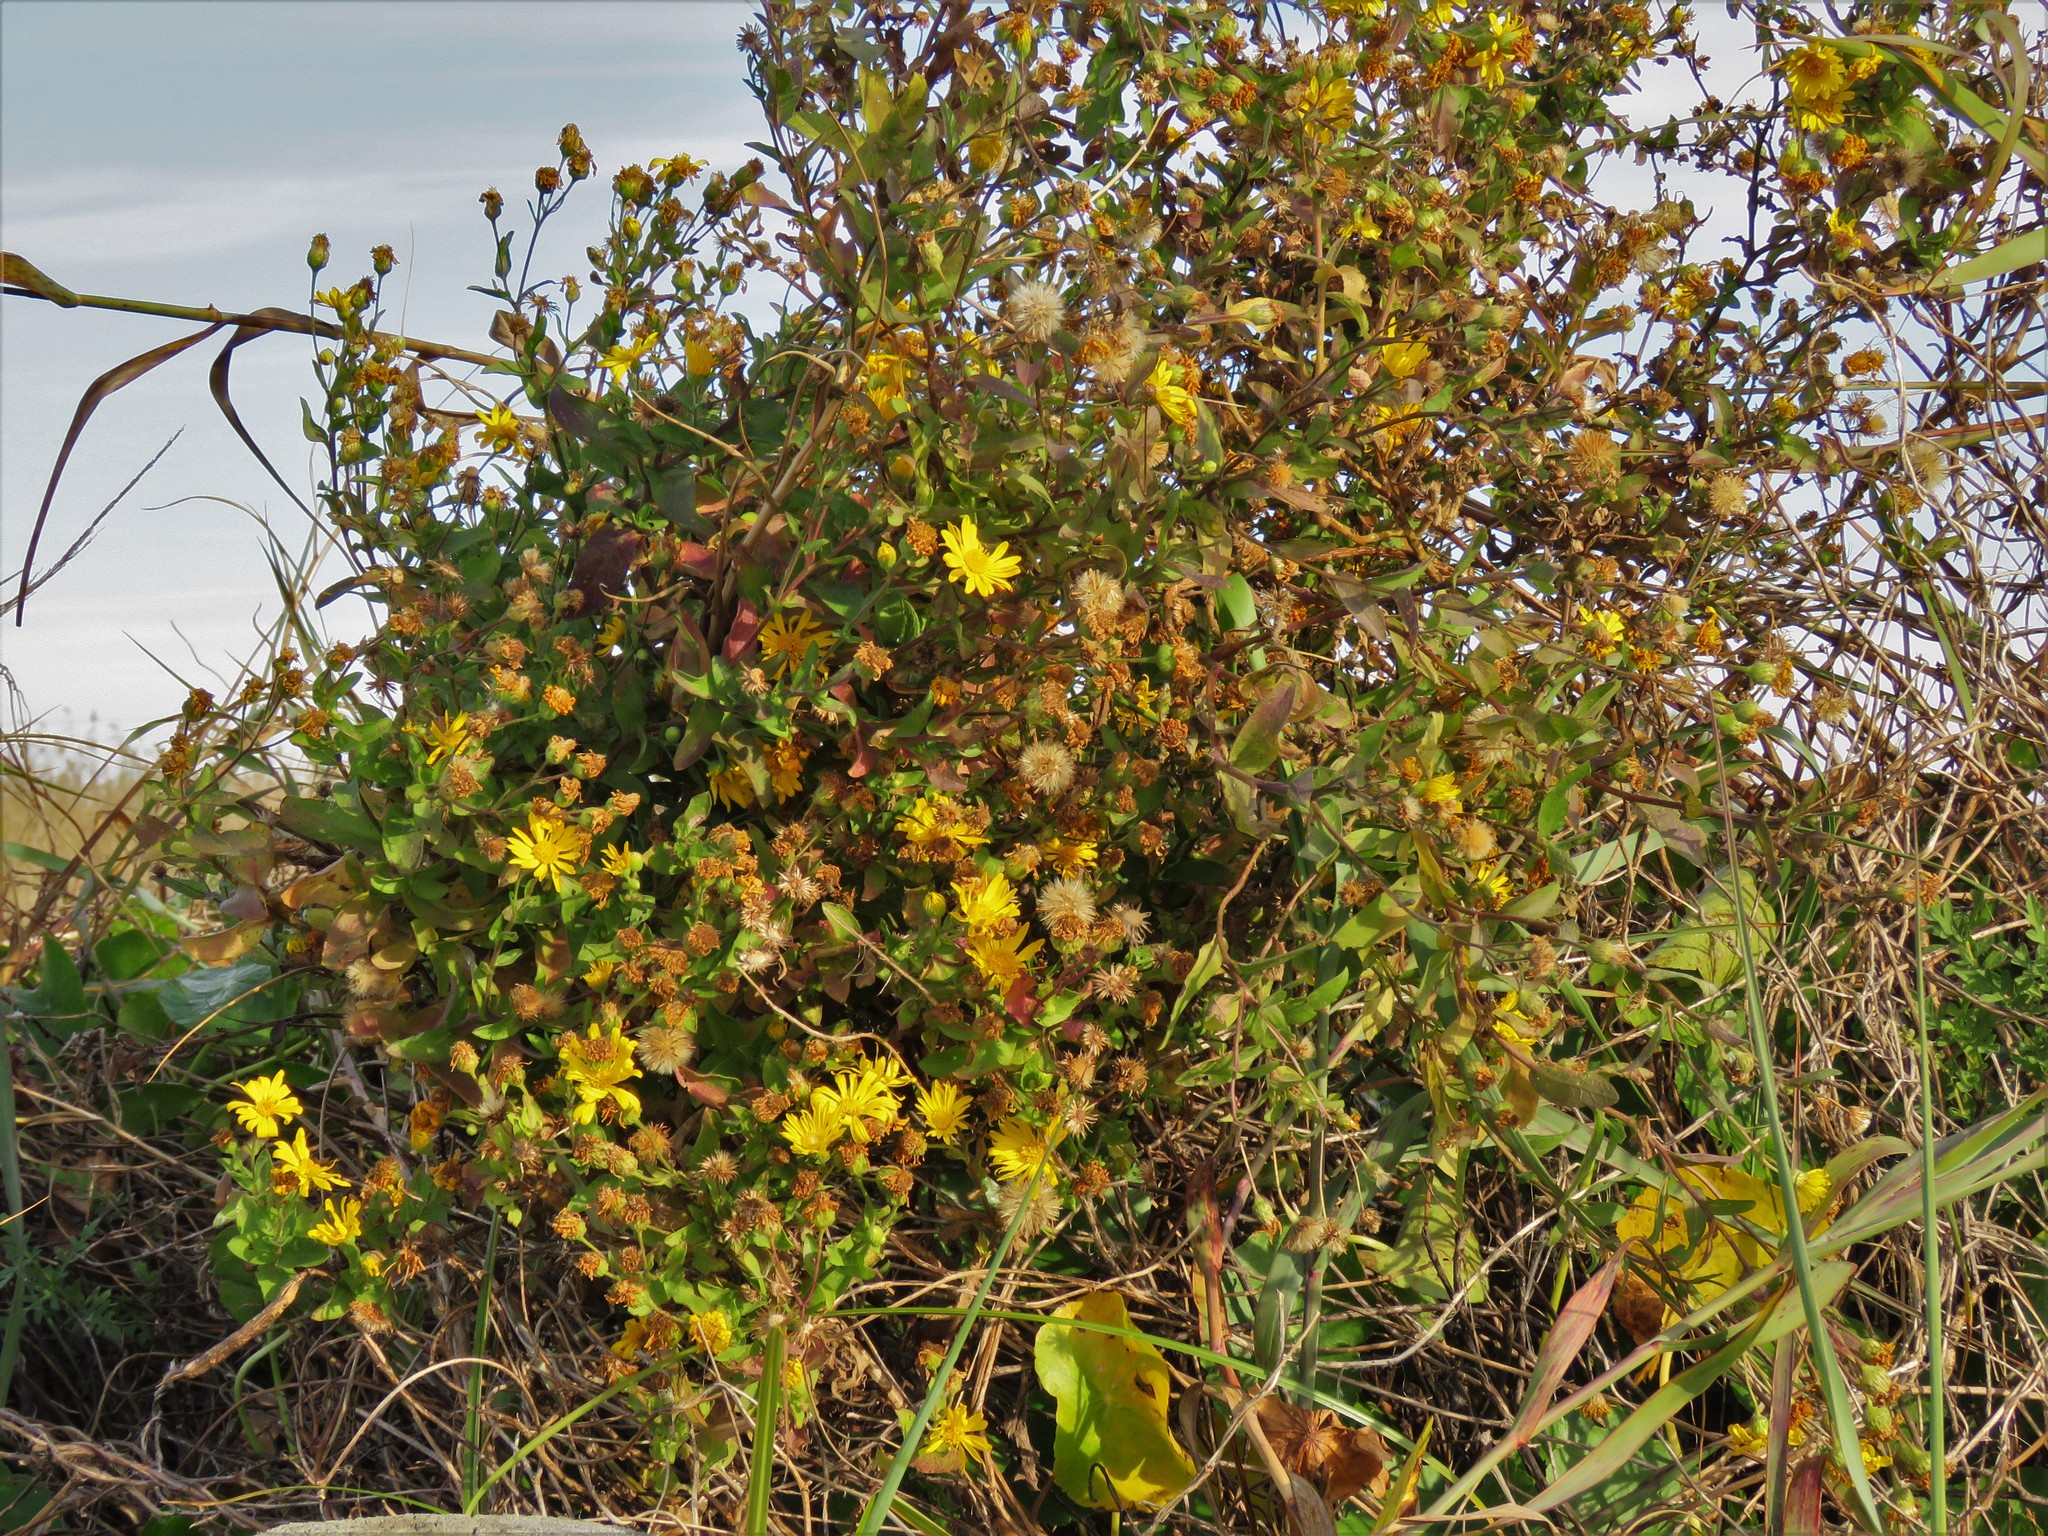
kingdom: Plantae
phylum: Tracheophyta
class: Magnoliopsida
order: Asterales
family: Asteraceae
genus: Heterotheca
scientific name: Heterotheca subaxillaris
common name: Camphorweed
